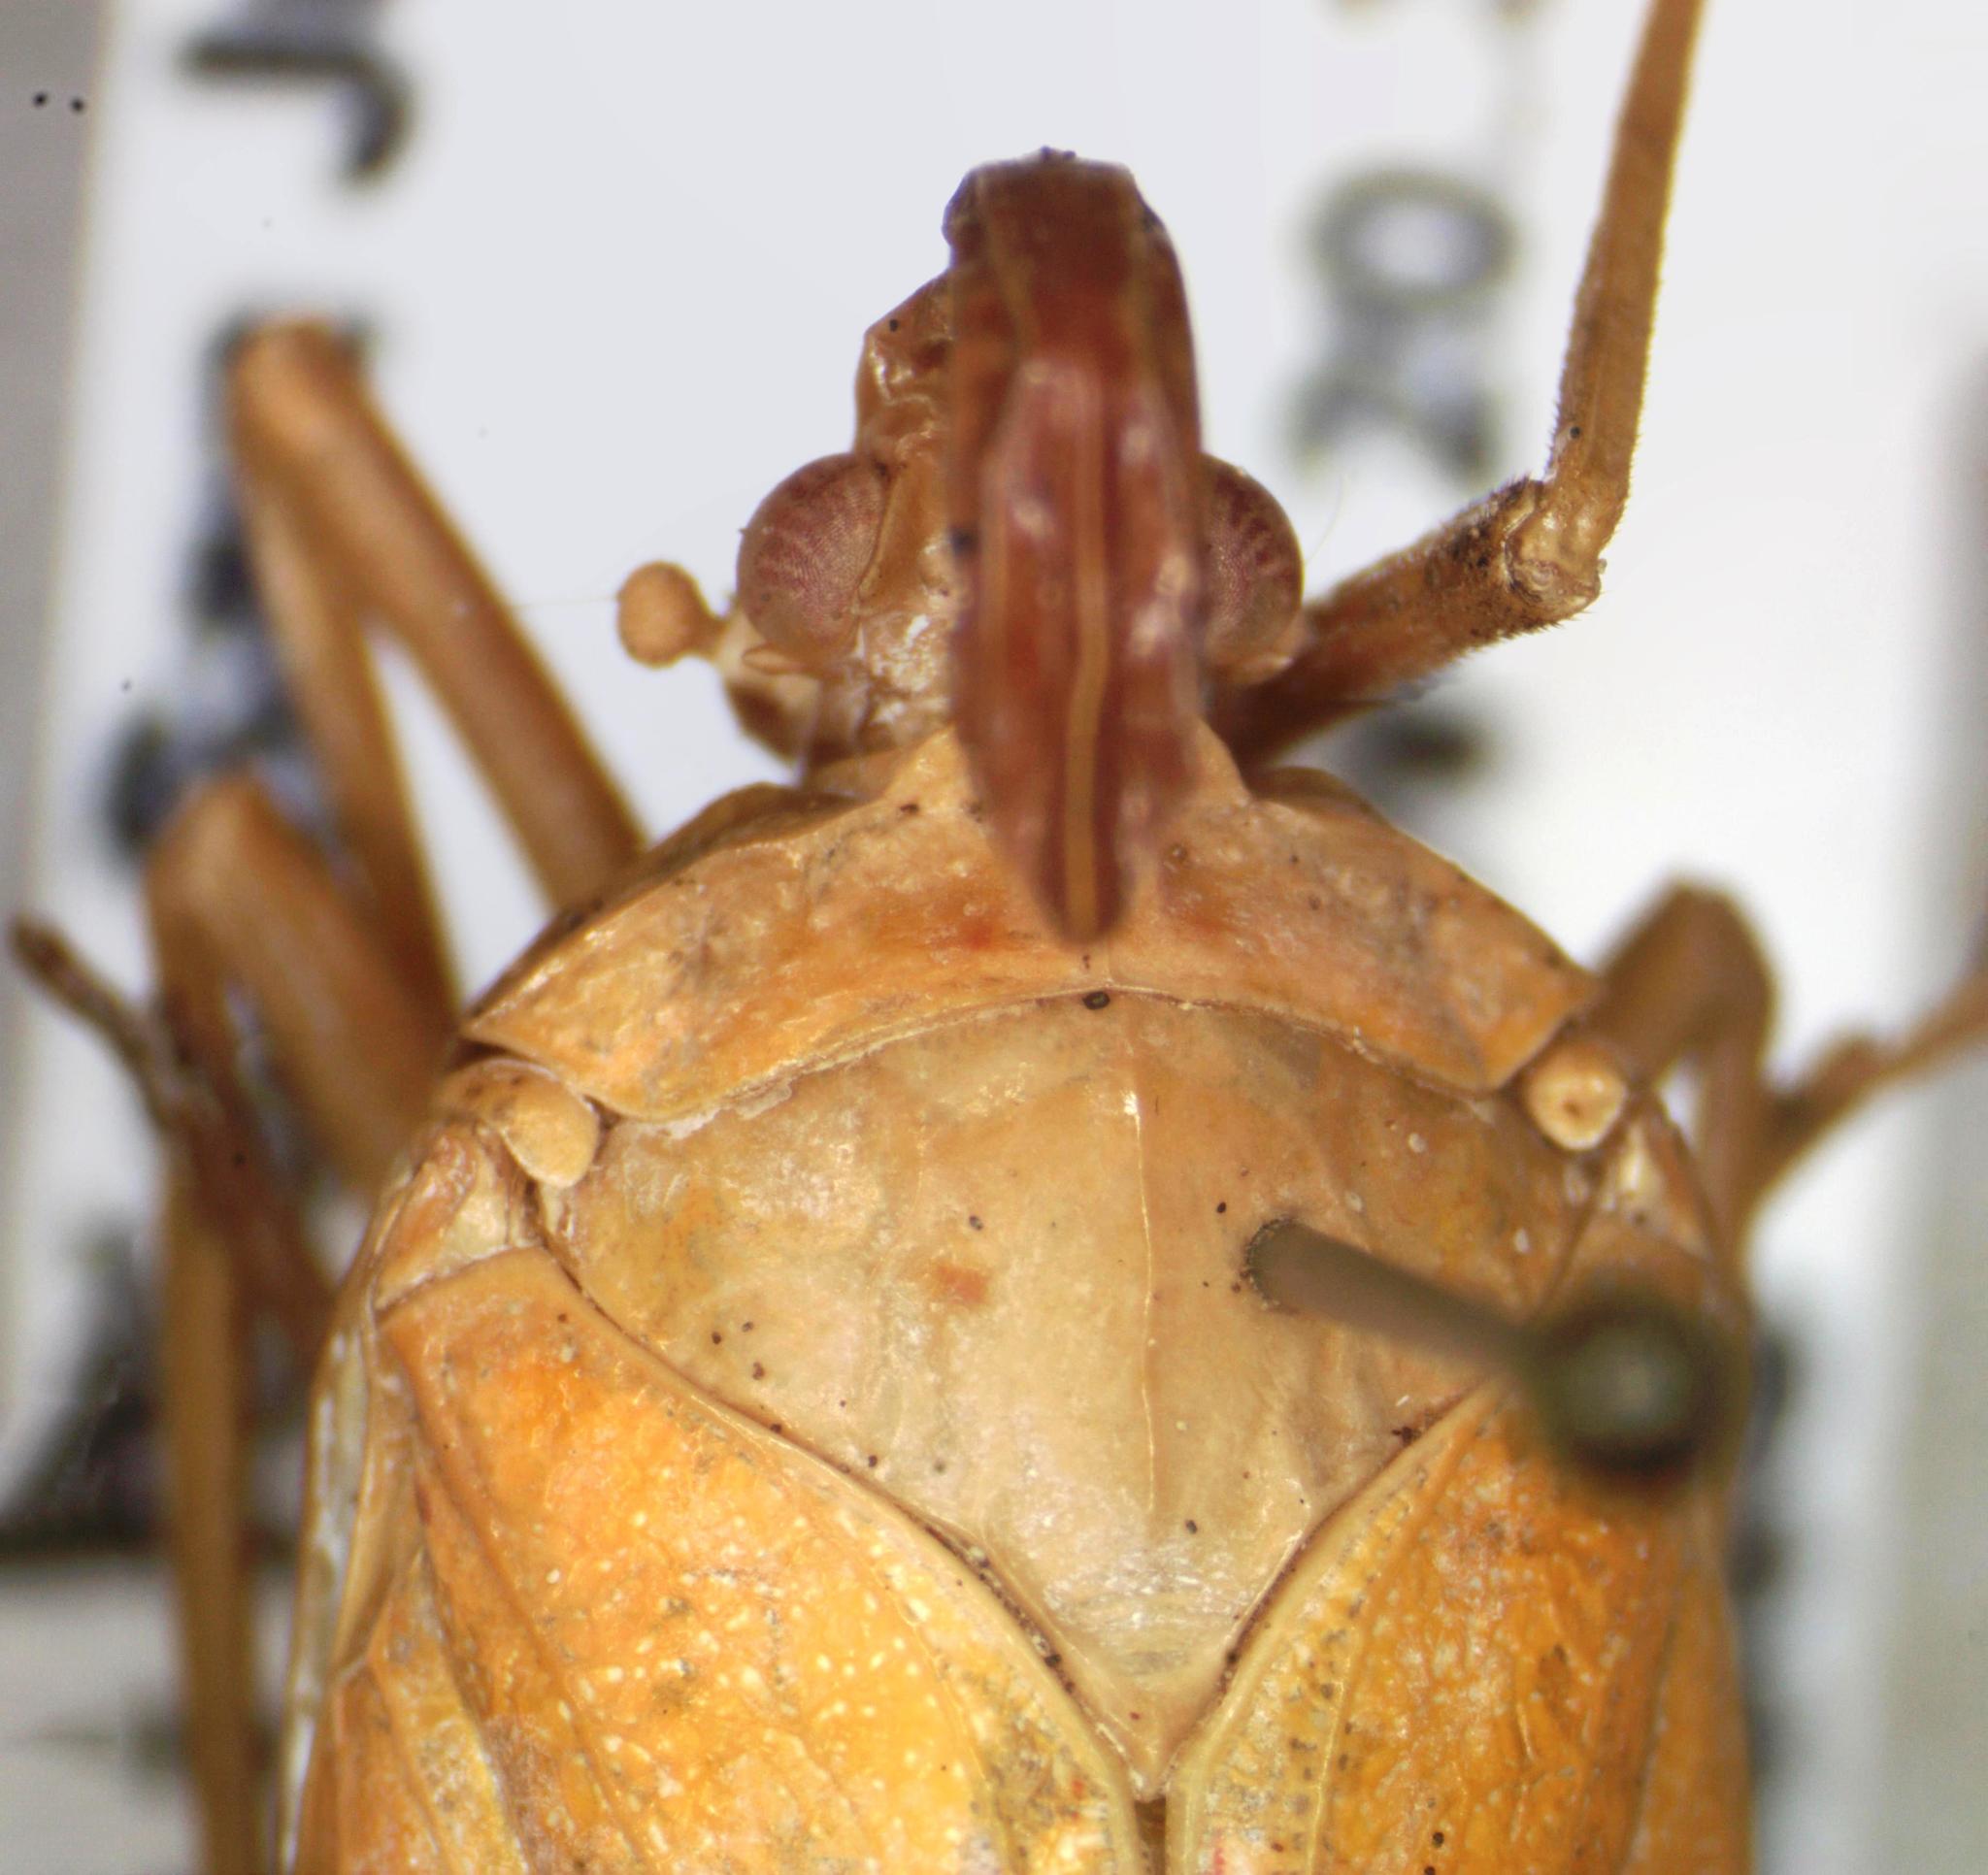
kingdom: Animalia
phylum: Arthropoda
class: Insecta
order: Hemiptera
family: Fulgoridae
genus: Enchophora
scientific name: Enchophora prasina
